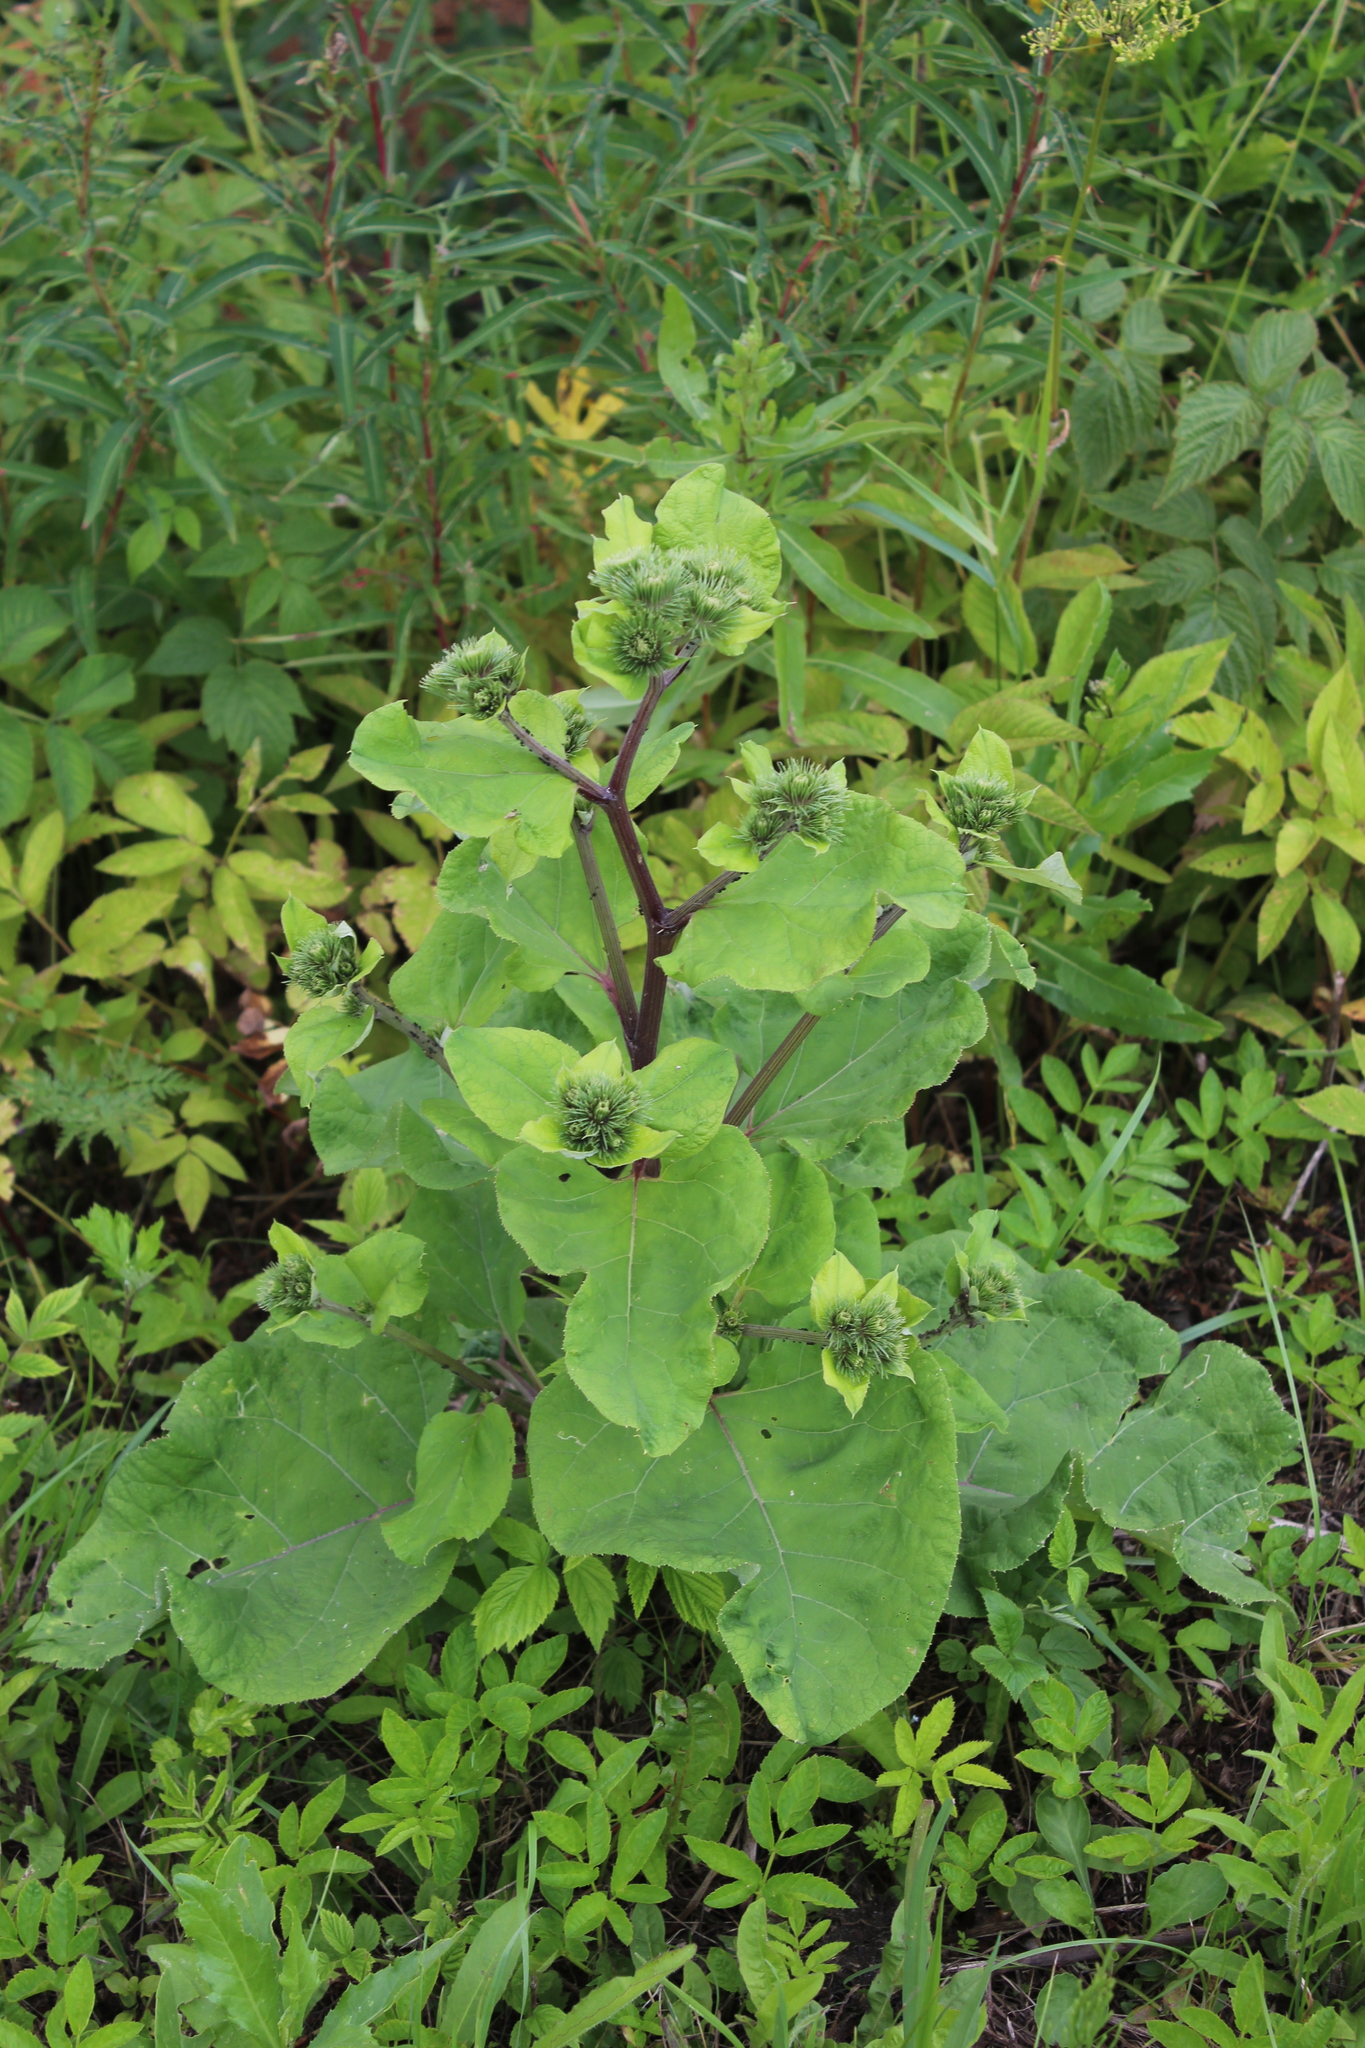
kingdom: Plantae
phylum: Tracheophyta
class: Magnoliopsida
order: Asterales
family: Asteraceae
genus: Arctium
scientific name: Arctium lappa
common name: Greater burdock
